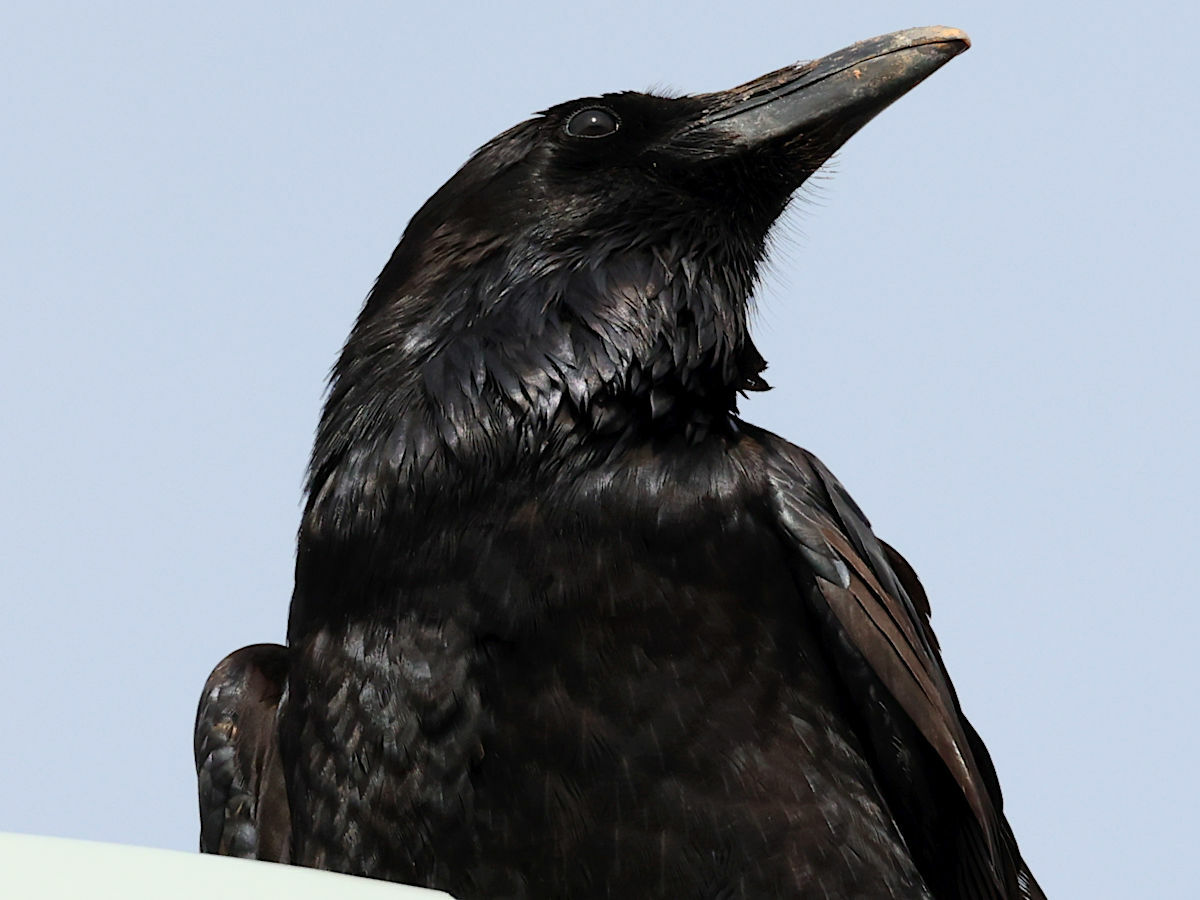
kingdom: Animalia
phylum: Chordata
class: Aves
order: Passeriformes
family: Corvidae
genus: Corvus
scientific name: Corvus corax
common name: Common raven
